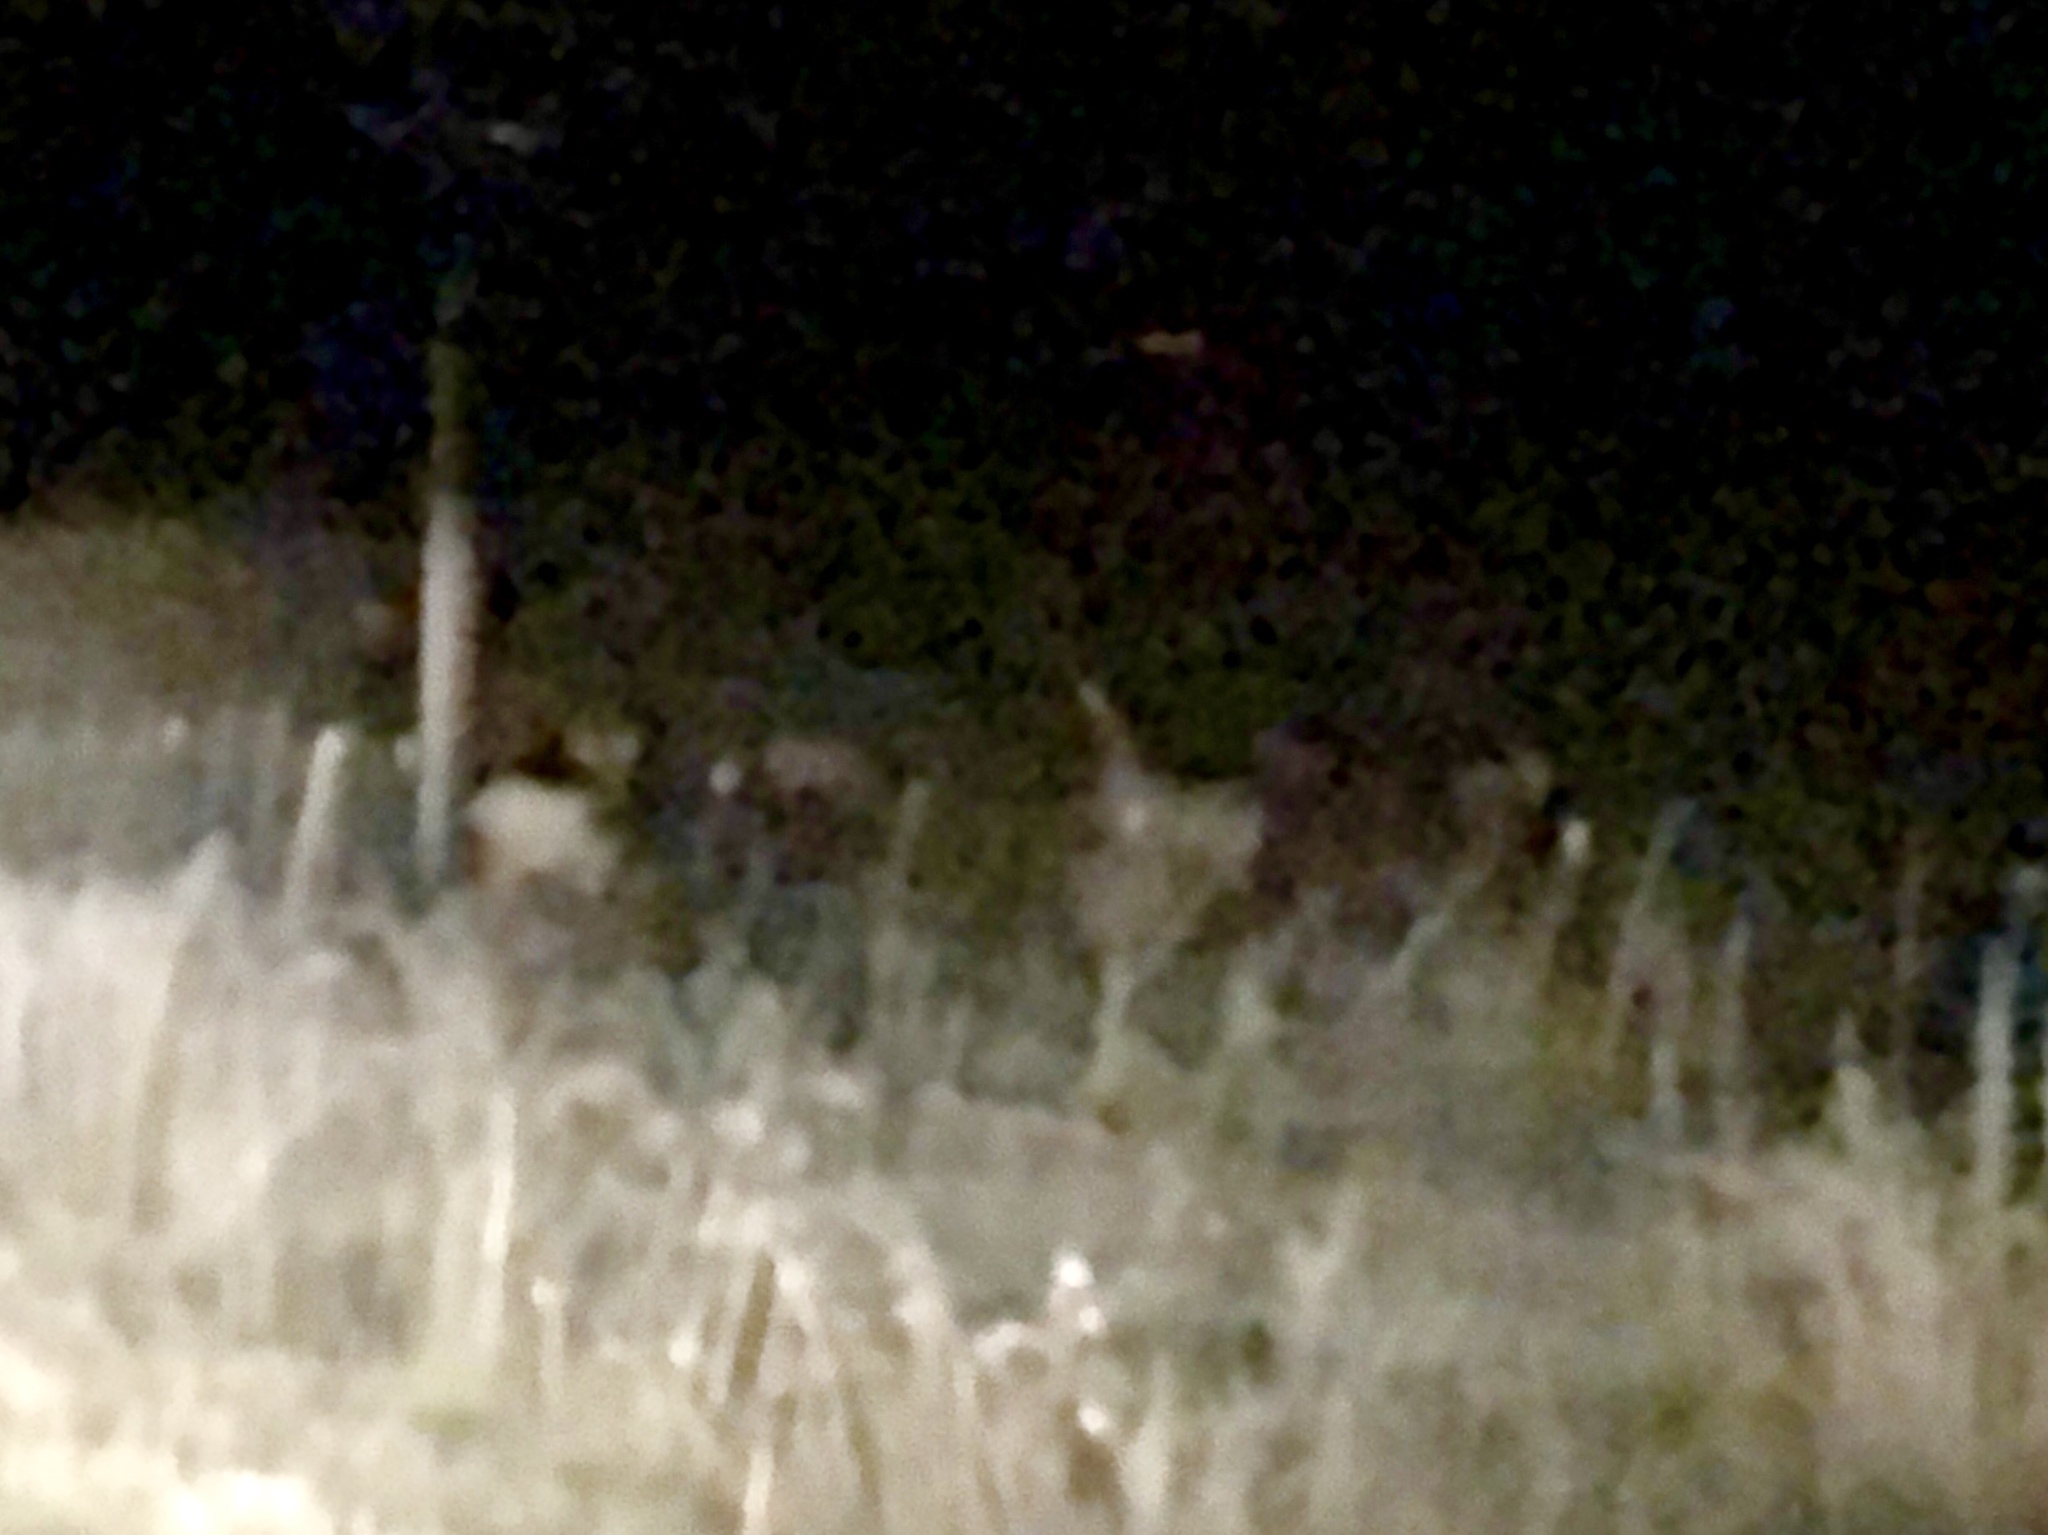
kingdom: Animalia
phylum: Chordata
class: Mammalia
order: Artiodactyla
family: Cervidae
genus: Cervus
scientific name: Cervus elaphus
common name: Red deer
